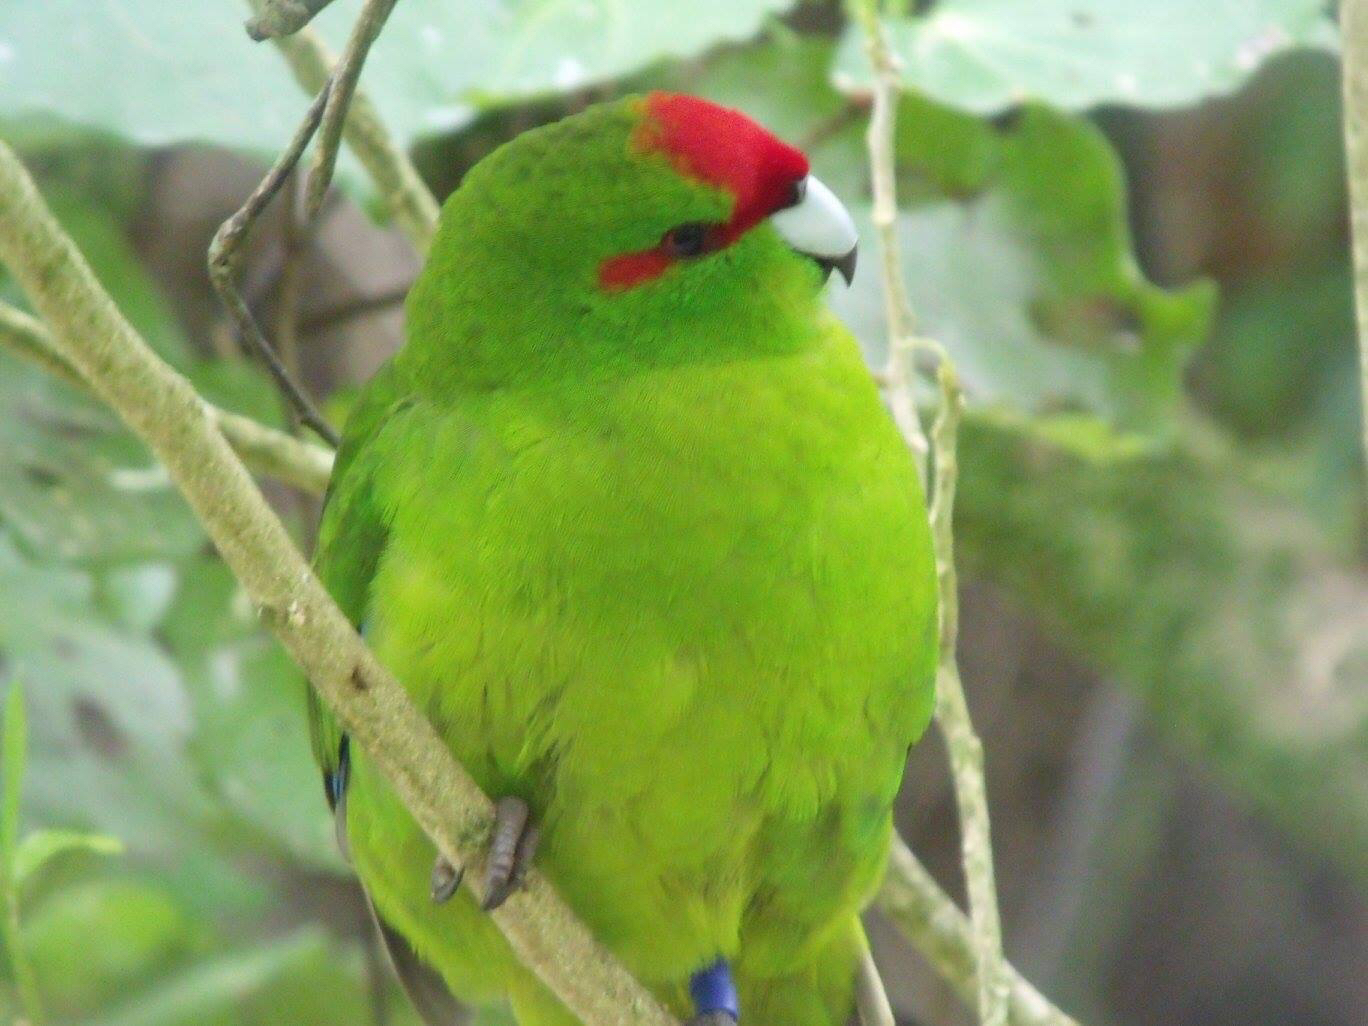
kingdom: Animalia
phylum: Chordata
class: Aves
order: Psittaciformes
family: Psittacidae
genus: Cyanoramphus
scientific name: Cyanoramphus novaezelandiae
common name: Red-fronted parakeet
